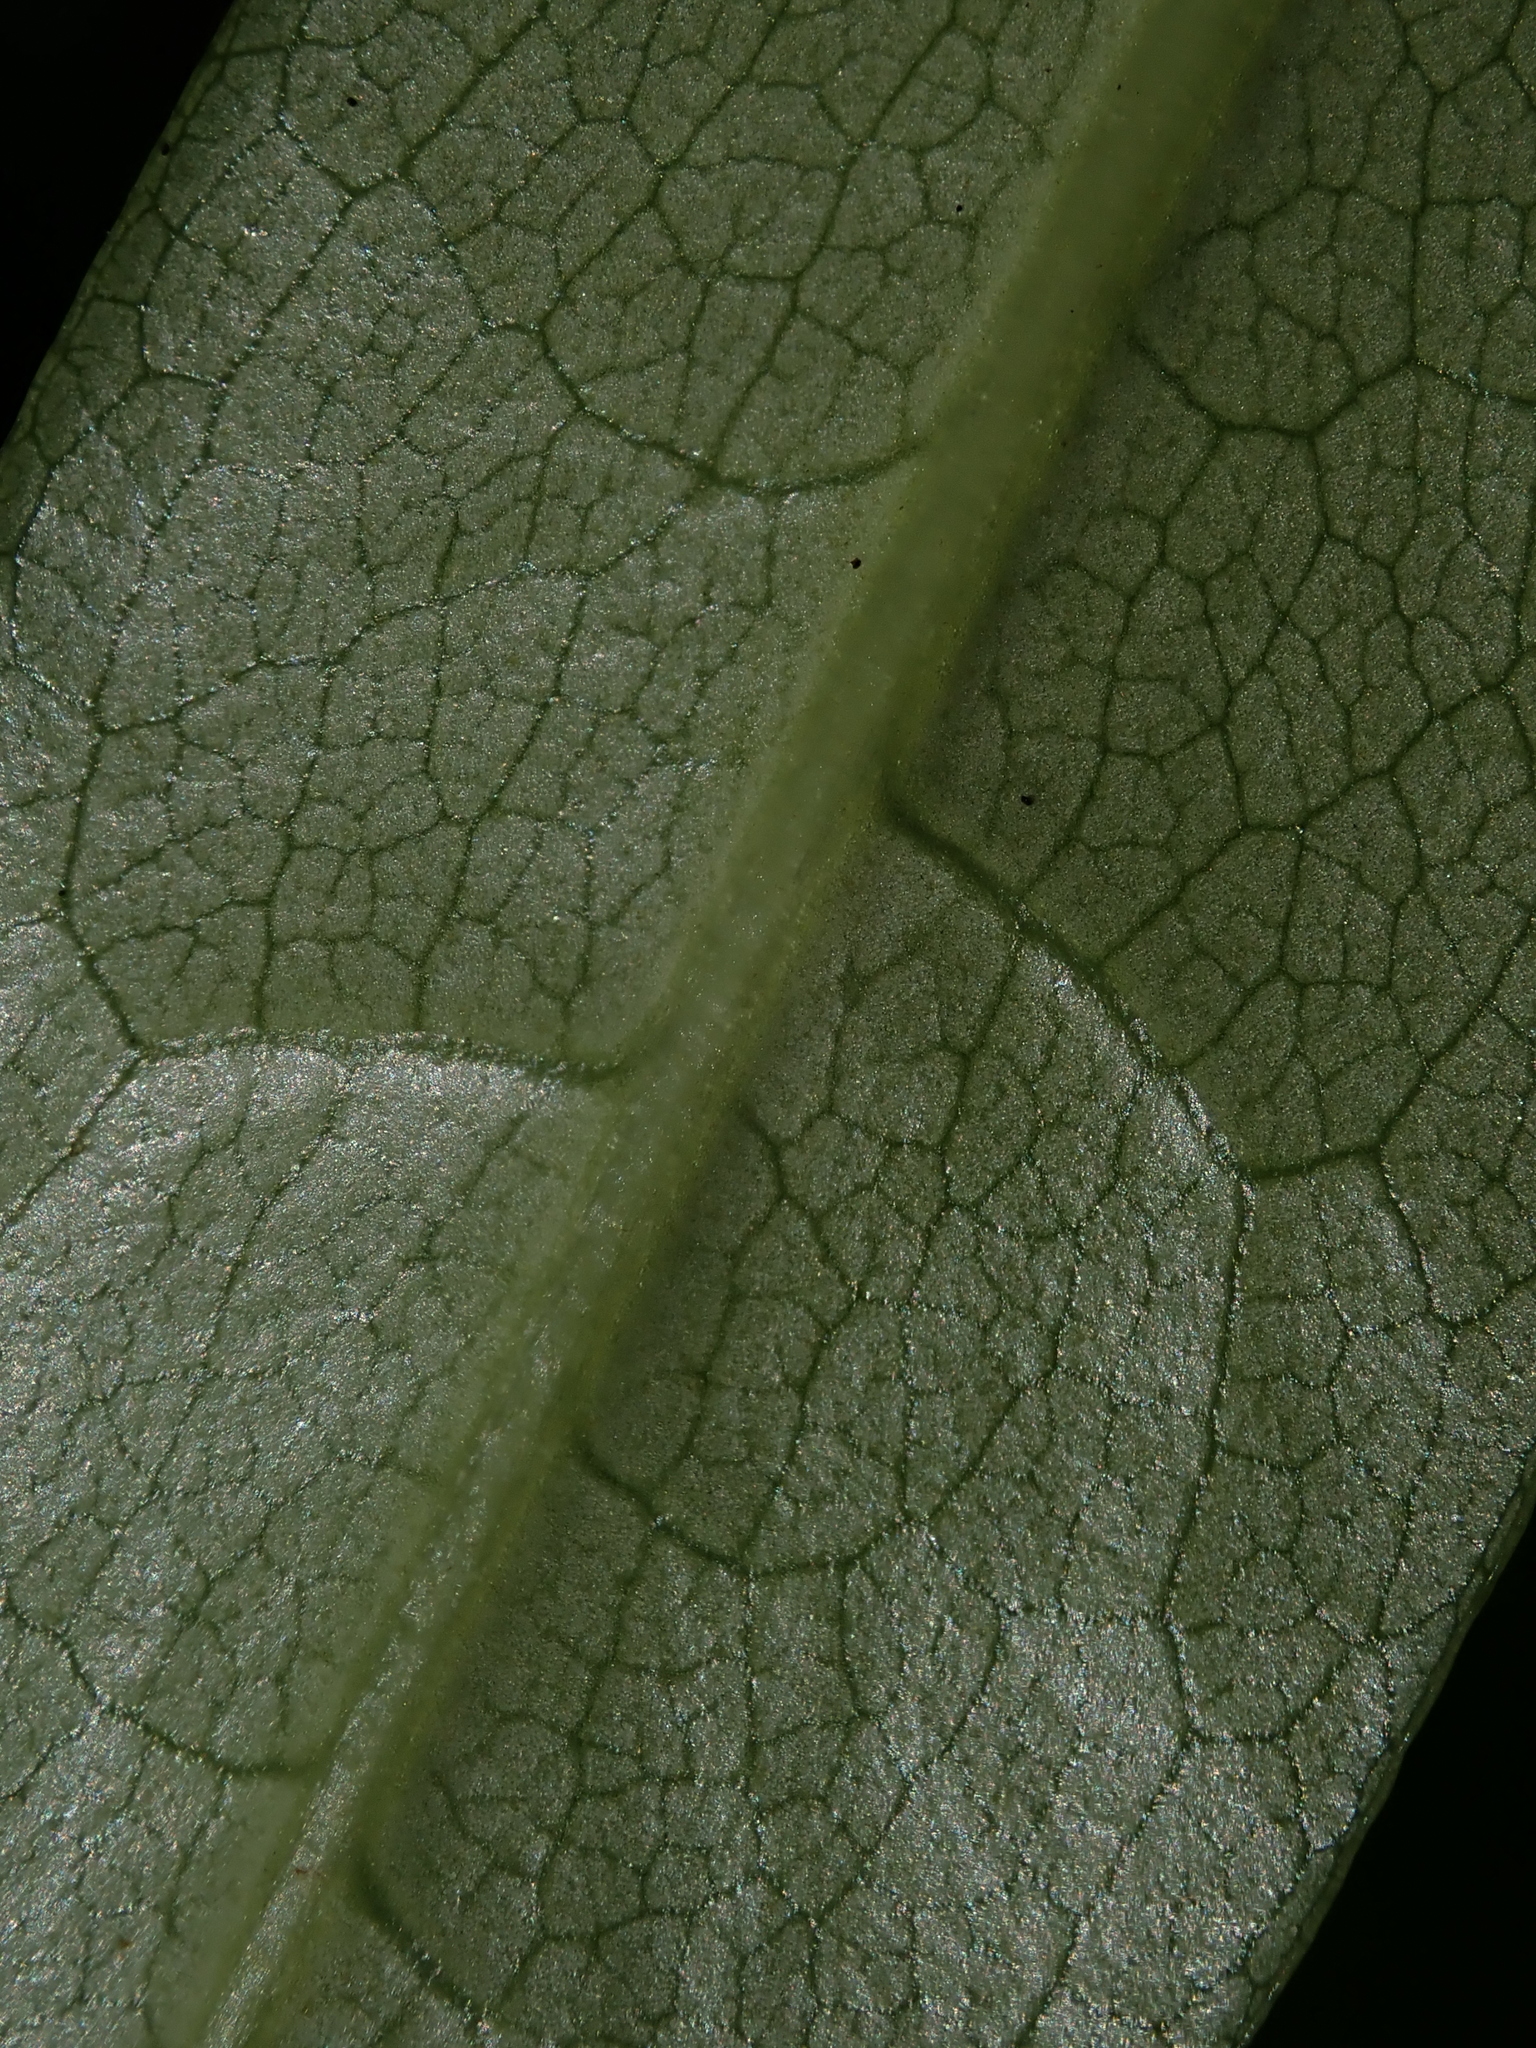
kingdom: Plantae
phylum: Tracheophyta
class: Magnoliopsida
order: Ericales
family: Ericaceae
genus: Rhododendron
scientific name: Rhododendron ponticum
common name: Rhododendron
